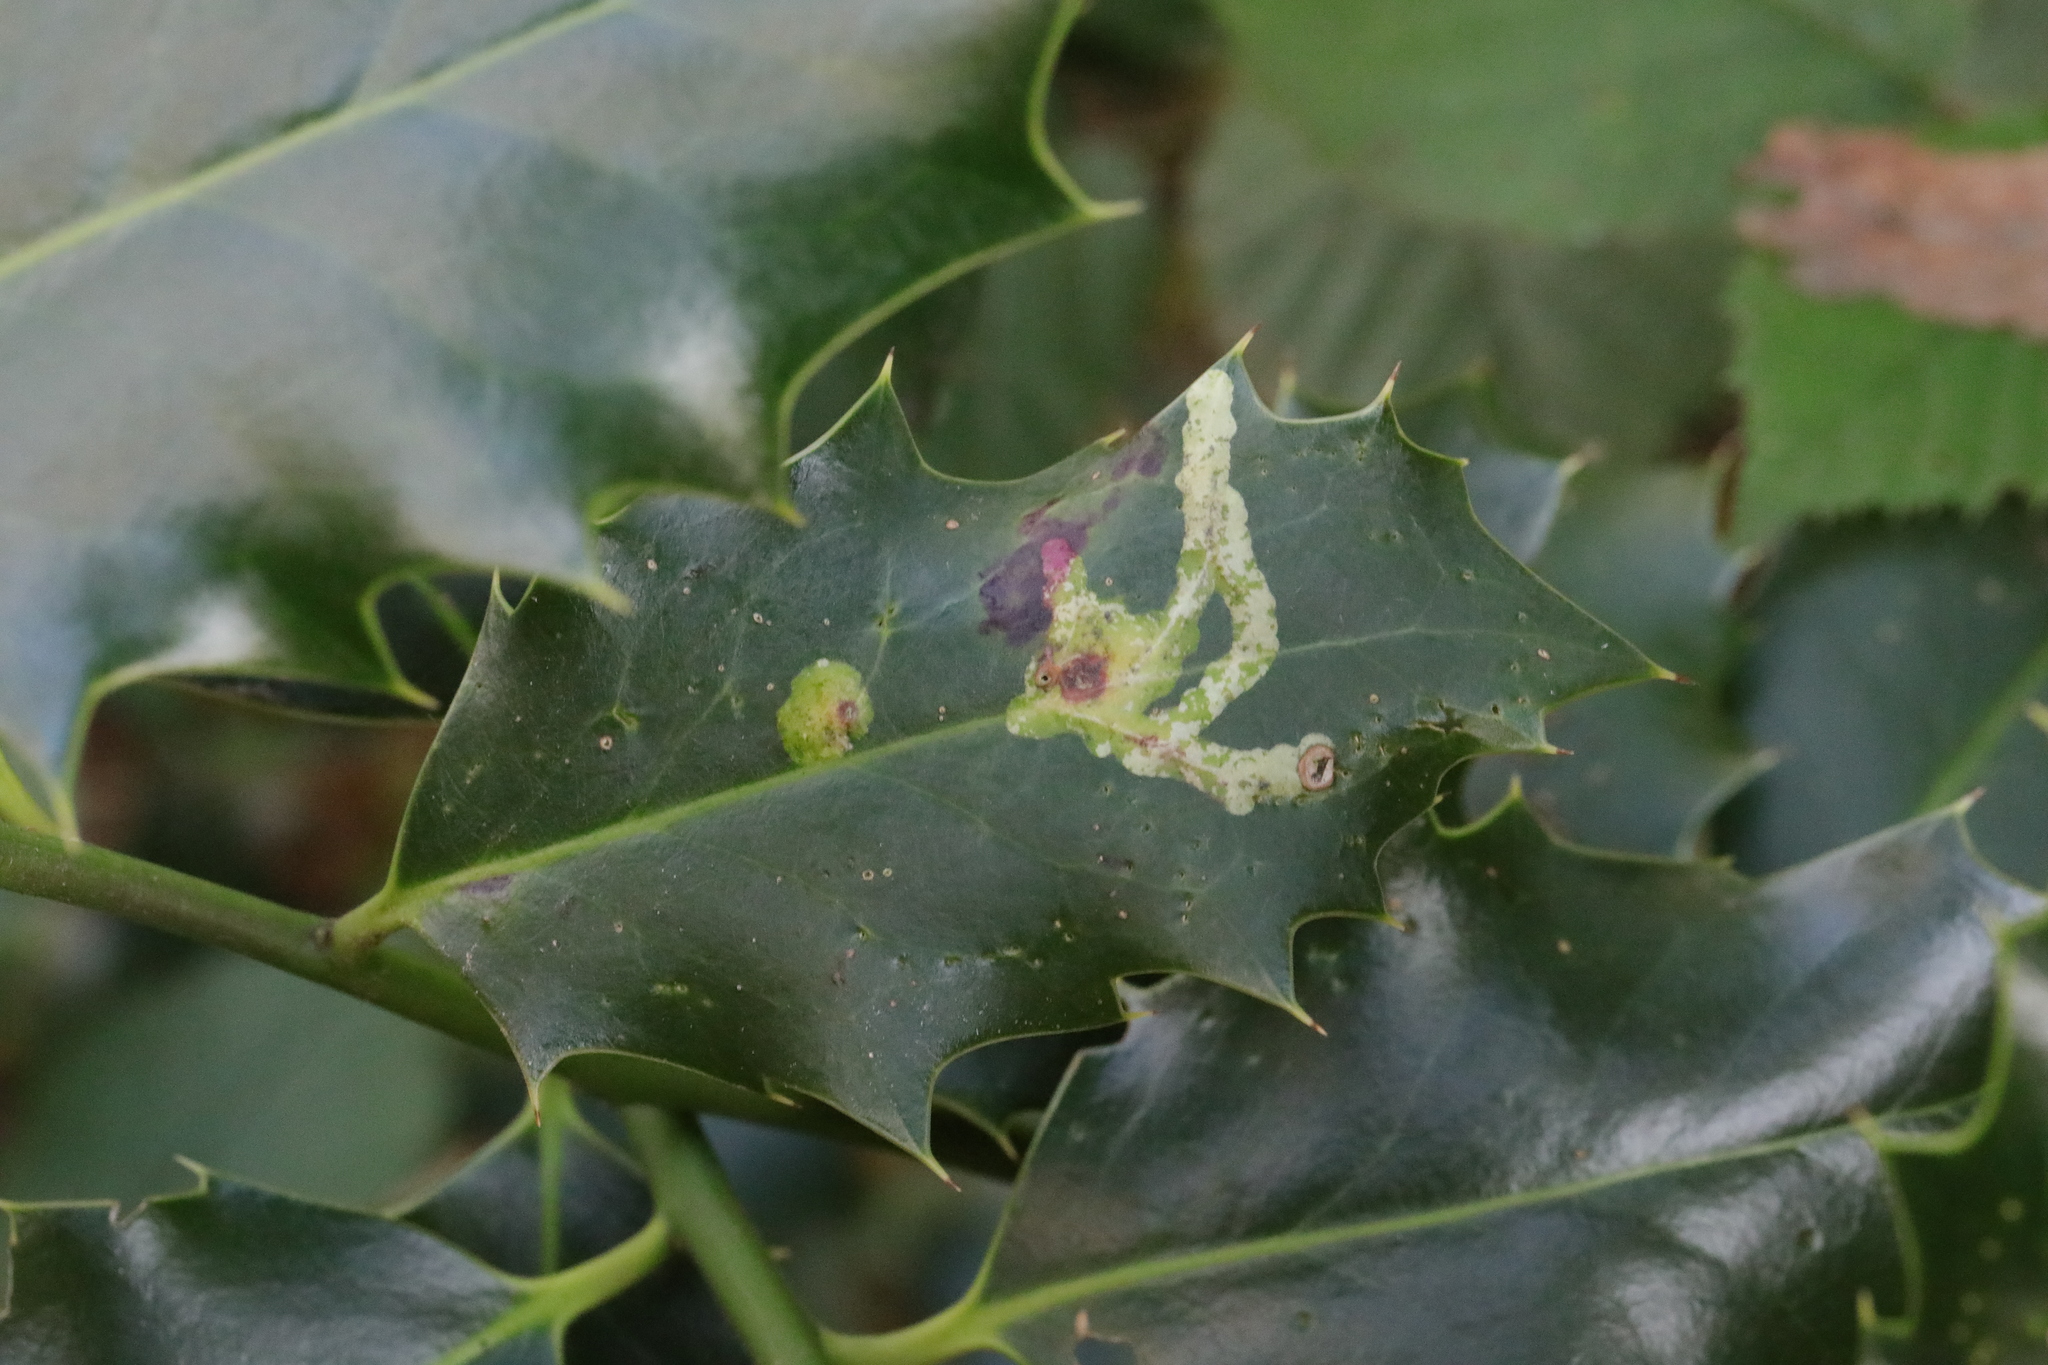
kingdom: Animalia
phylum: Arthropoda
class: Insecta
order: Diptera
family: Agromyzidae
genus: Phytomyza
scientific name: Phytomyza ilicis
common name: Holly leafminer
